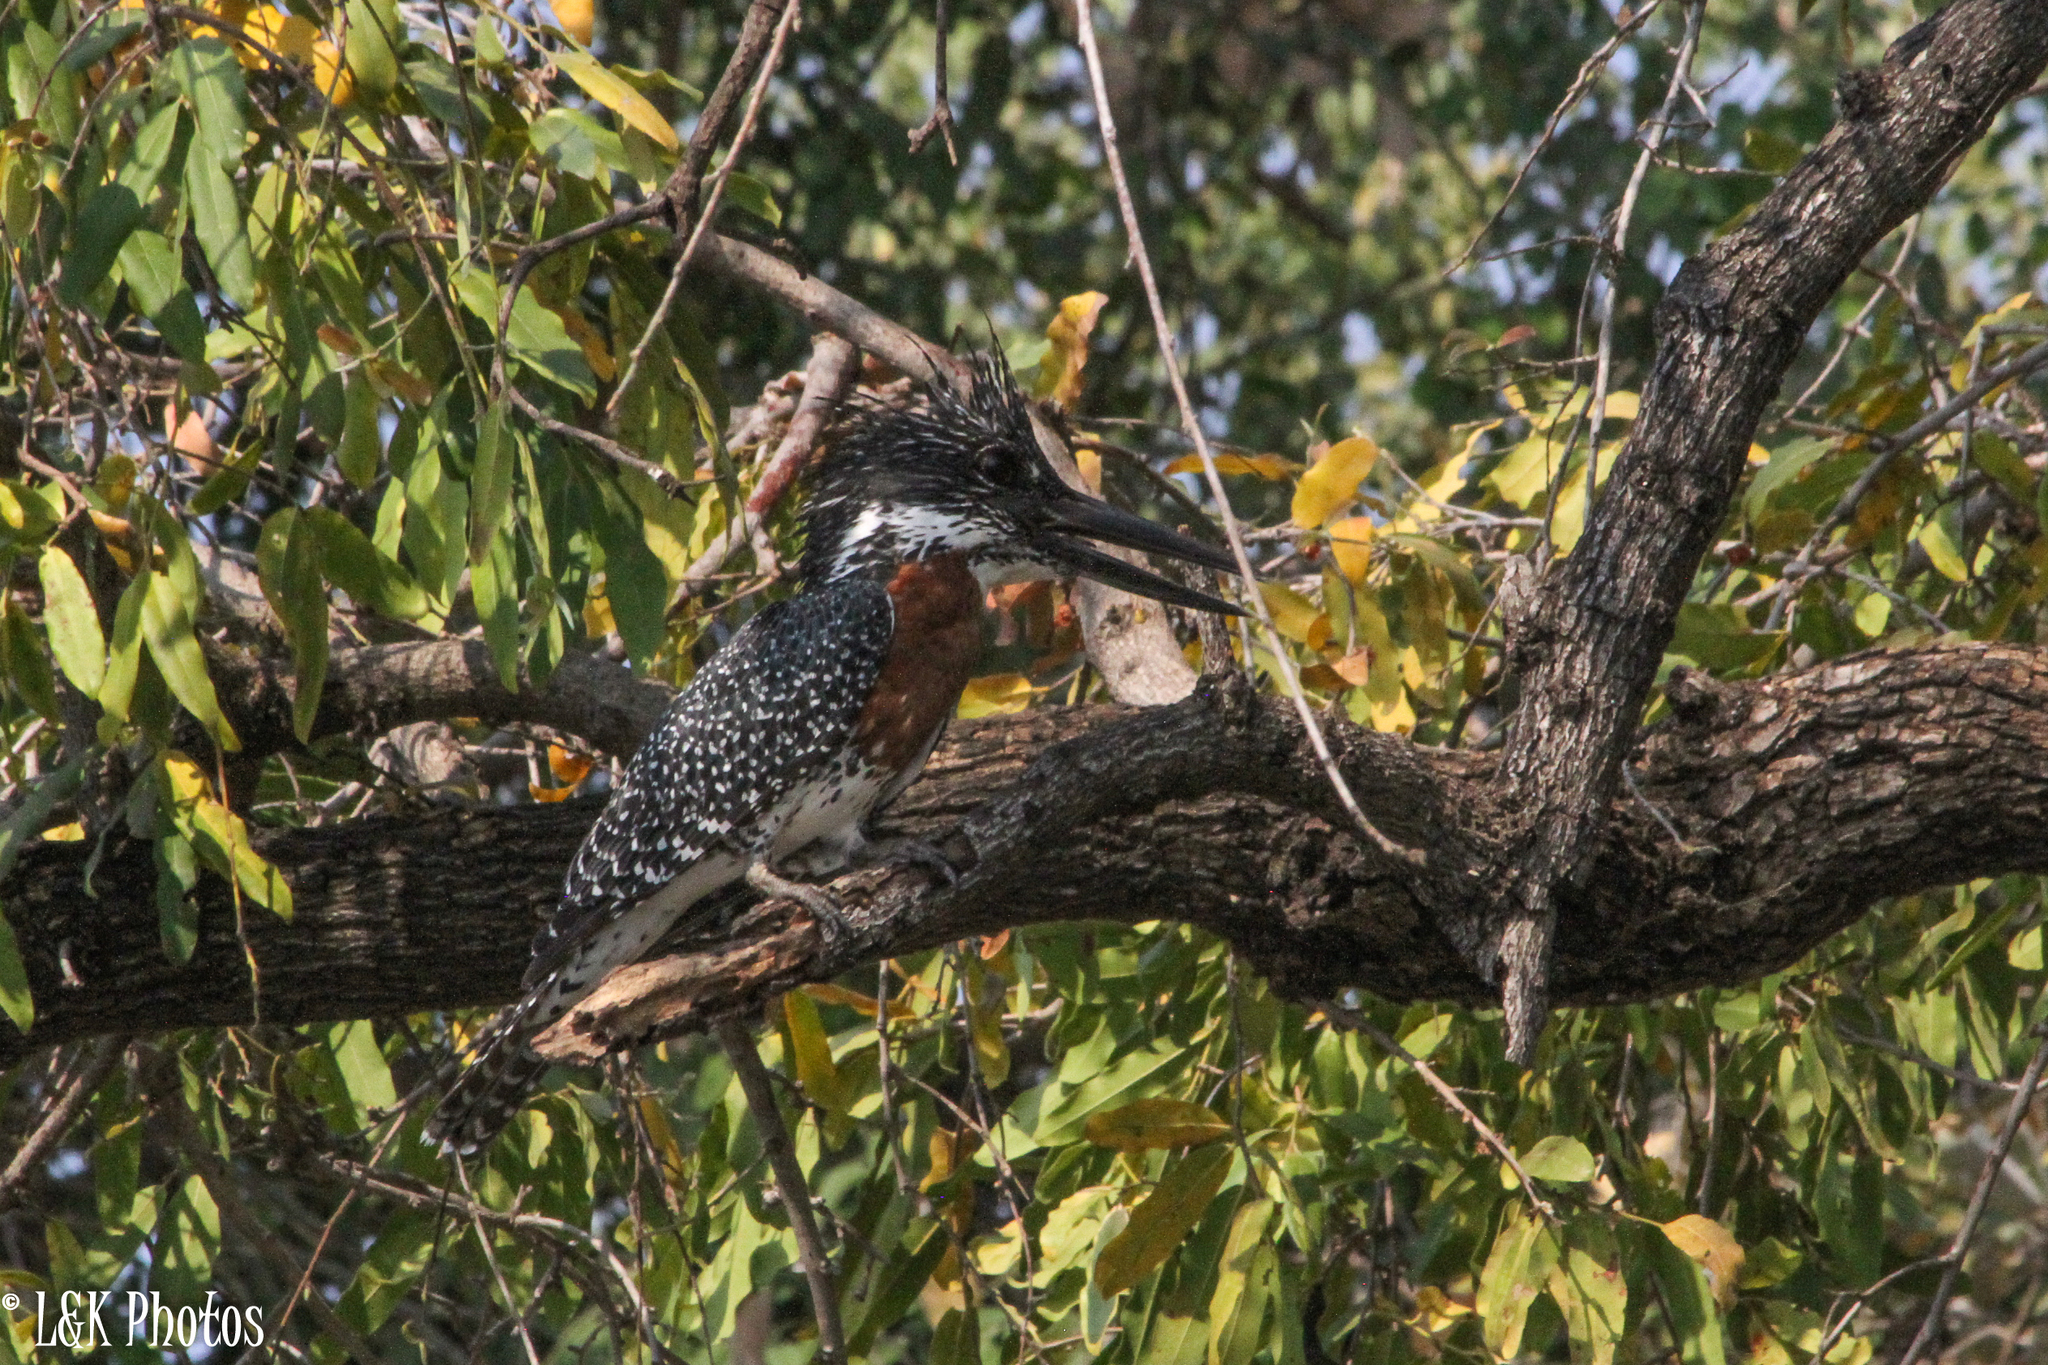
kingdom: Animalia
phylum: Chordata
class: Aves
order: Coraciiformes
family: Alcedinidae
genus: Megaceryle
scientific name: Megaceryle maxima
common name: Giant kingfisher
